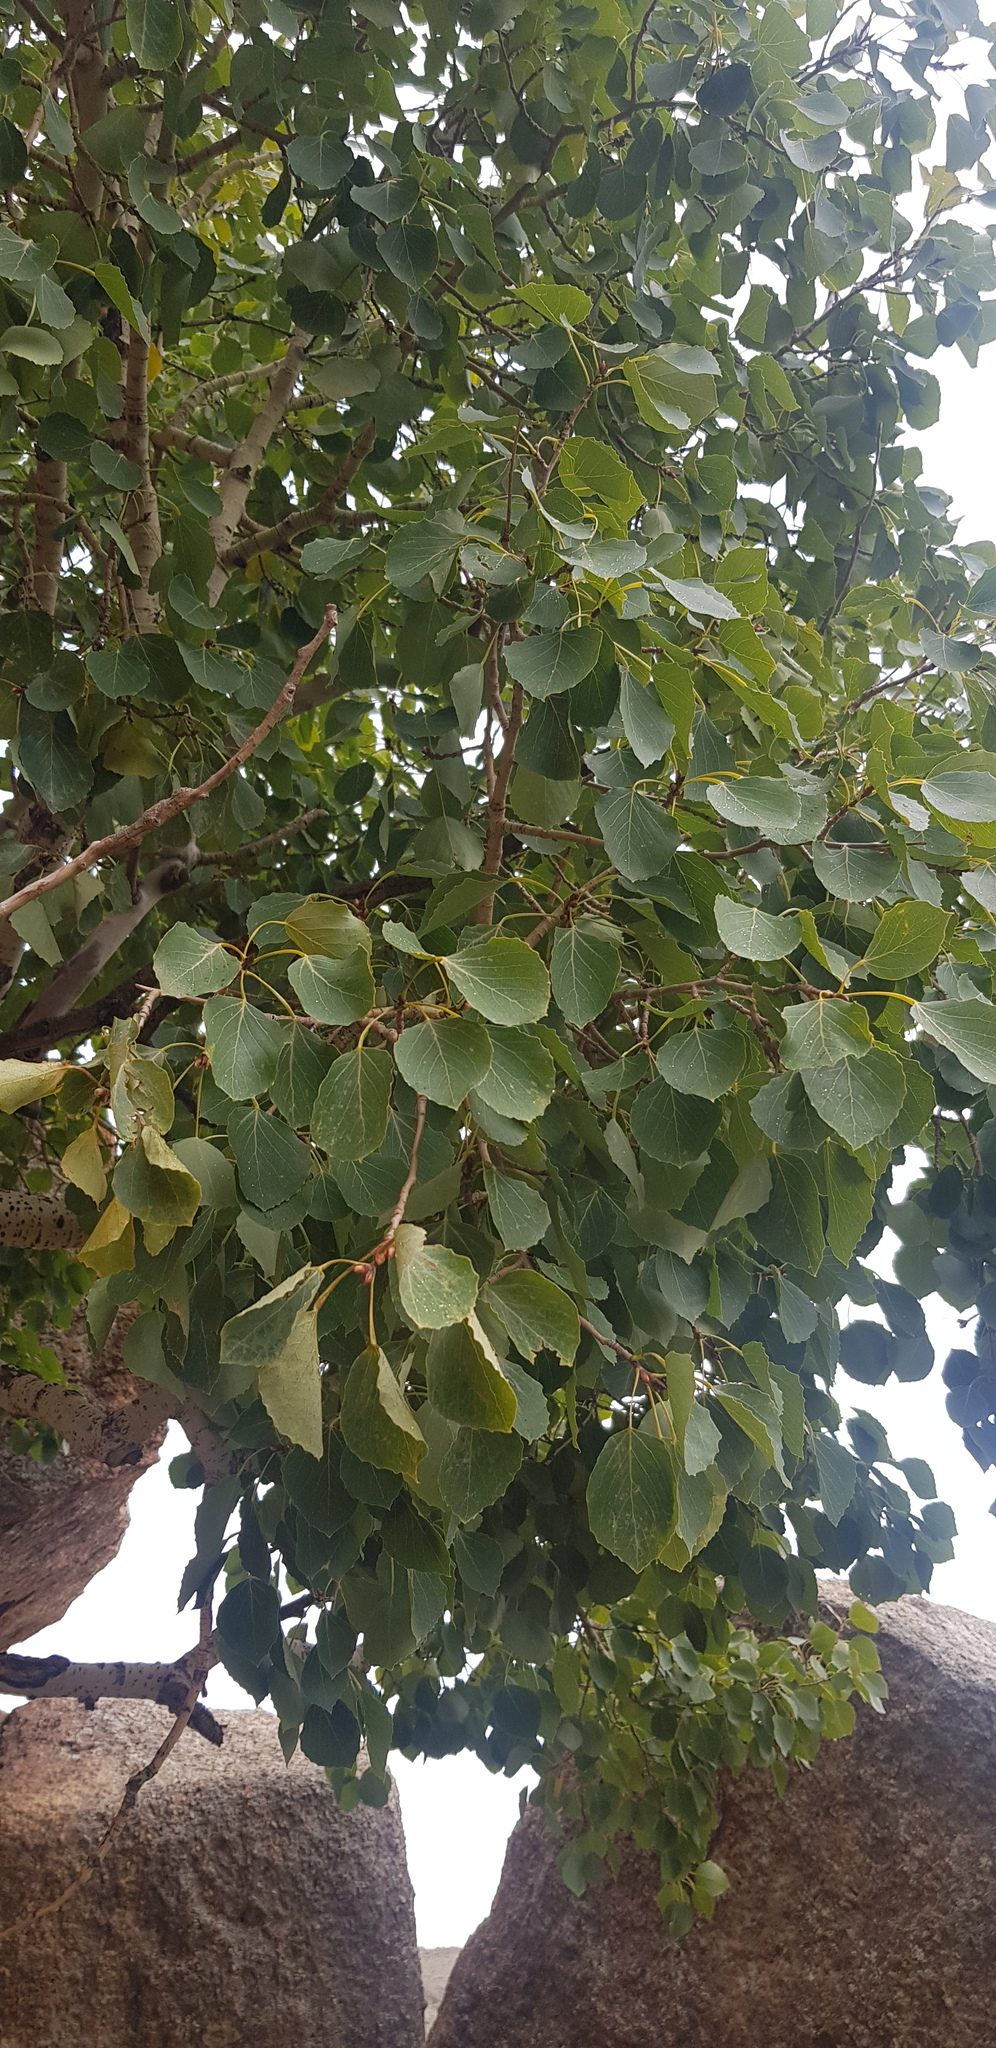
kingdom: Plantae
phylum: Tracheophyta
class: Magnoliopsida
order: Malpighiales
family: Salicaceae
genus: Populus
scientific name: Populus tremula
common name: European aspen
